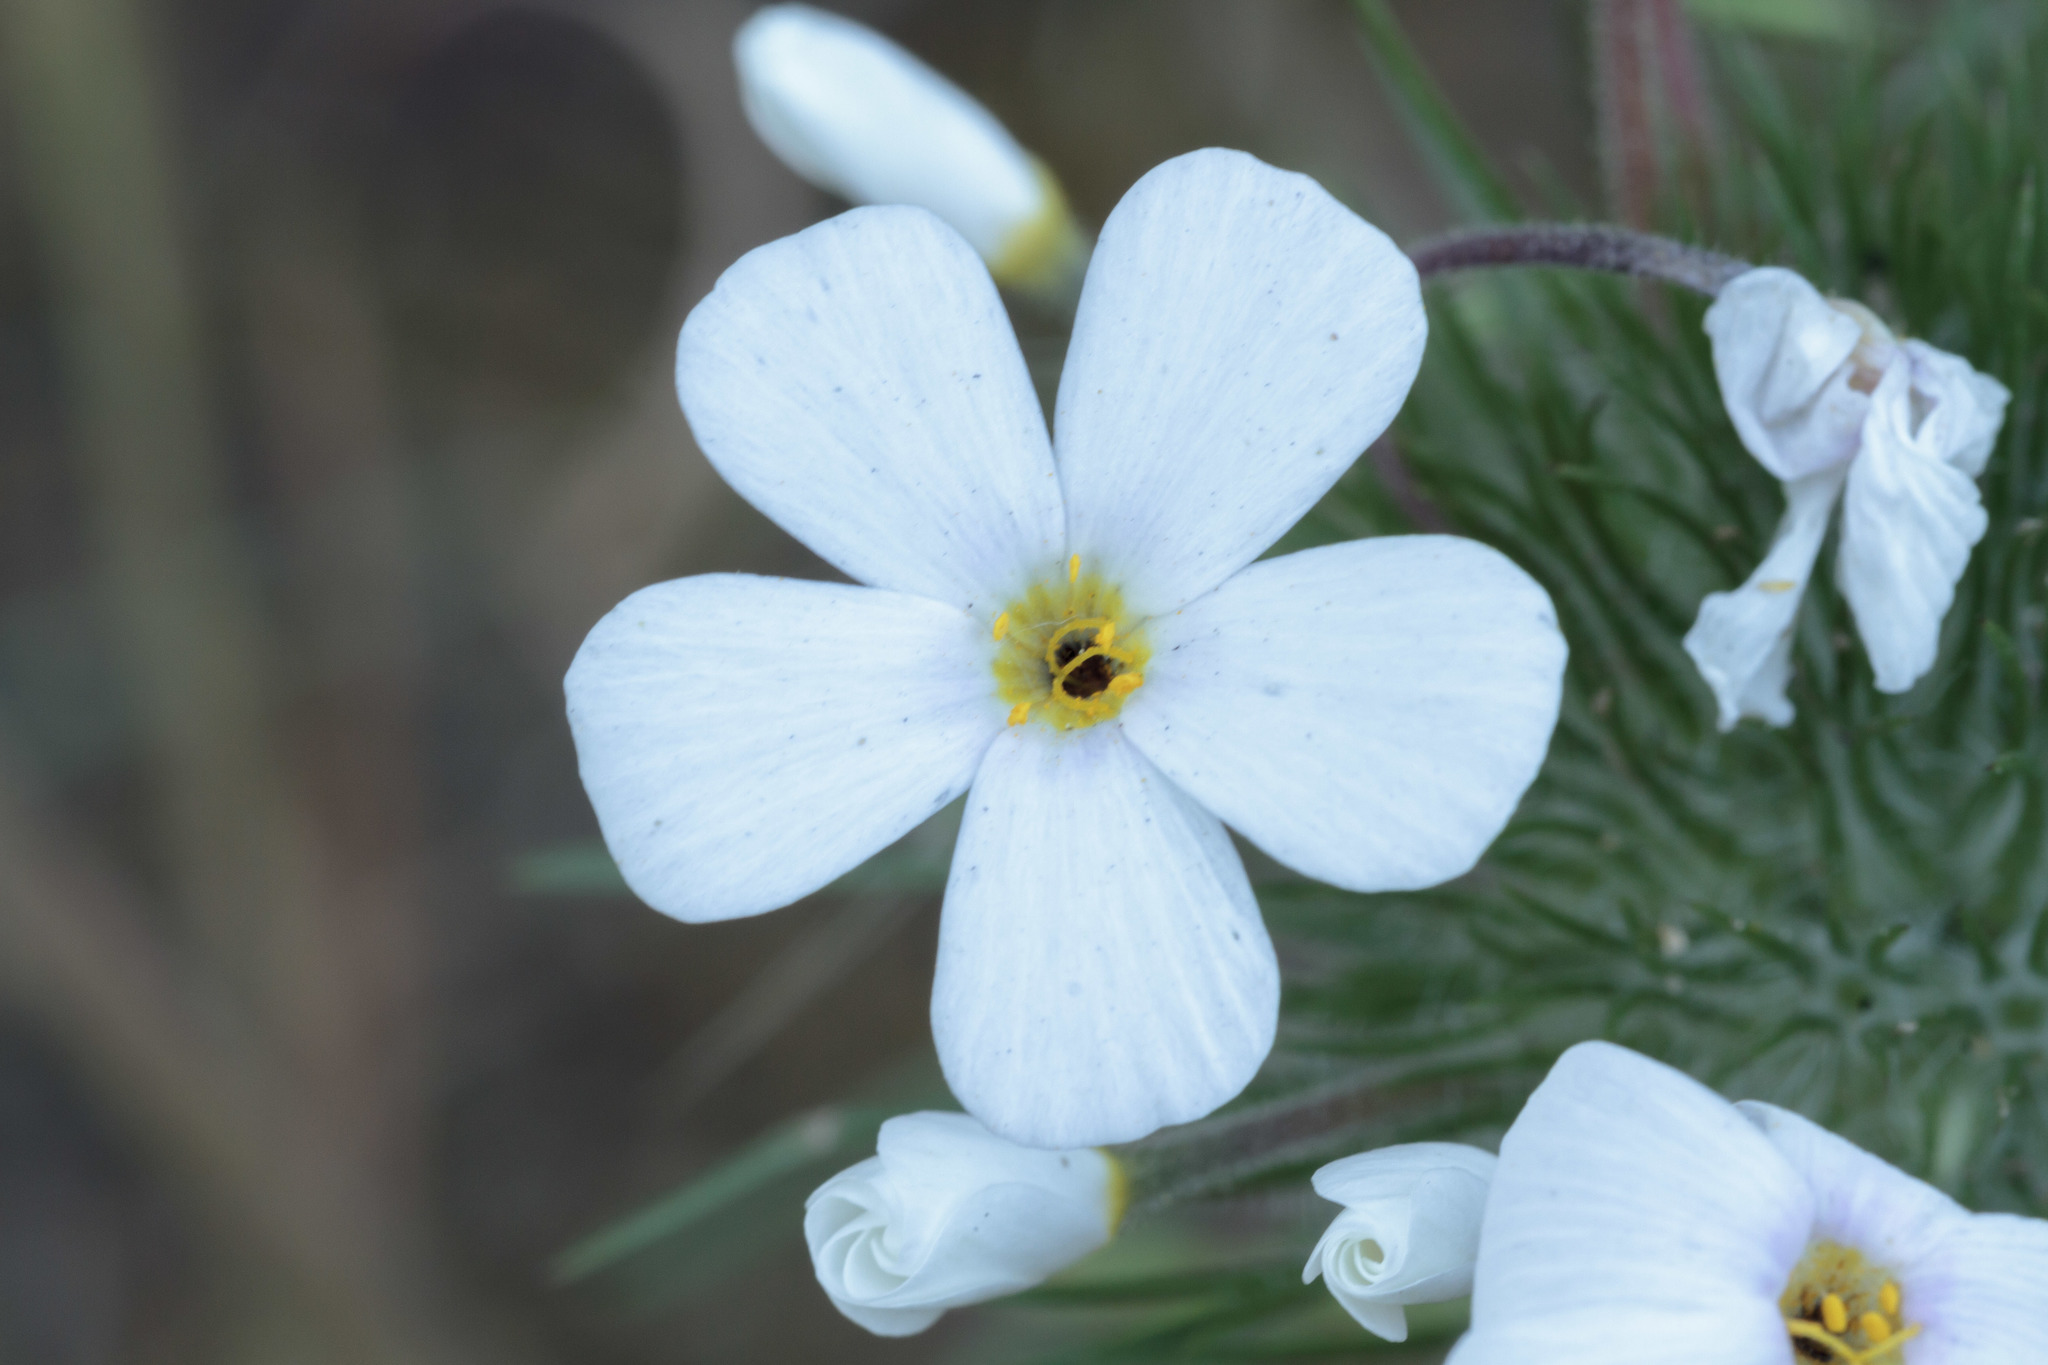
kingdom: Plantae
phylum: Tracheophyta
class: Magnoliopsida
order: Ericales
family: Polemoniaceae
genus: Leptosiphon
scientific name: Leptosiphon montanus
